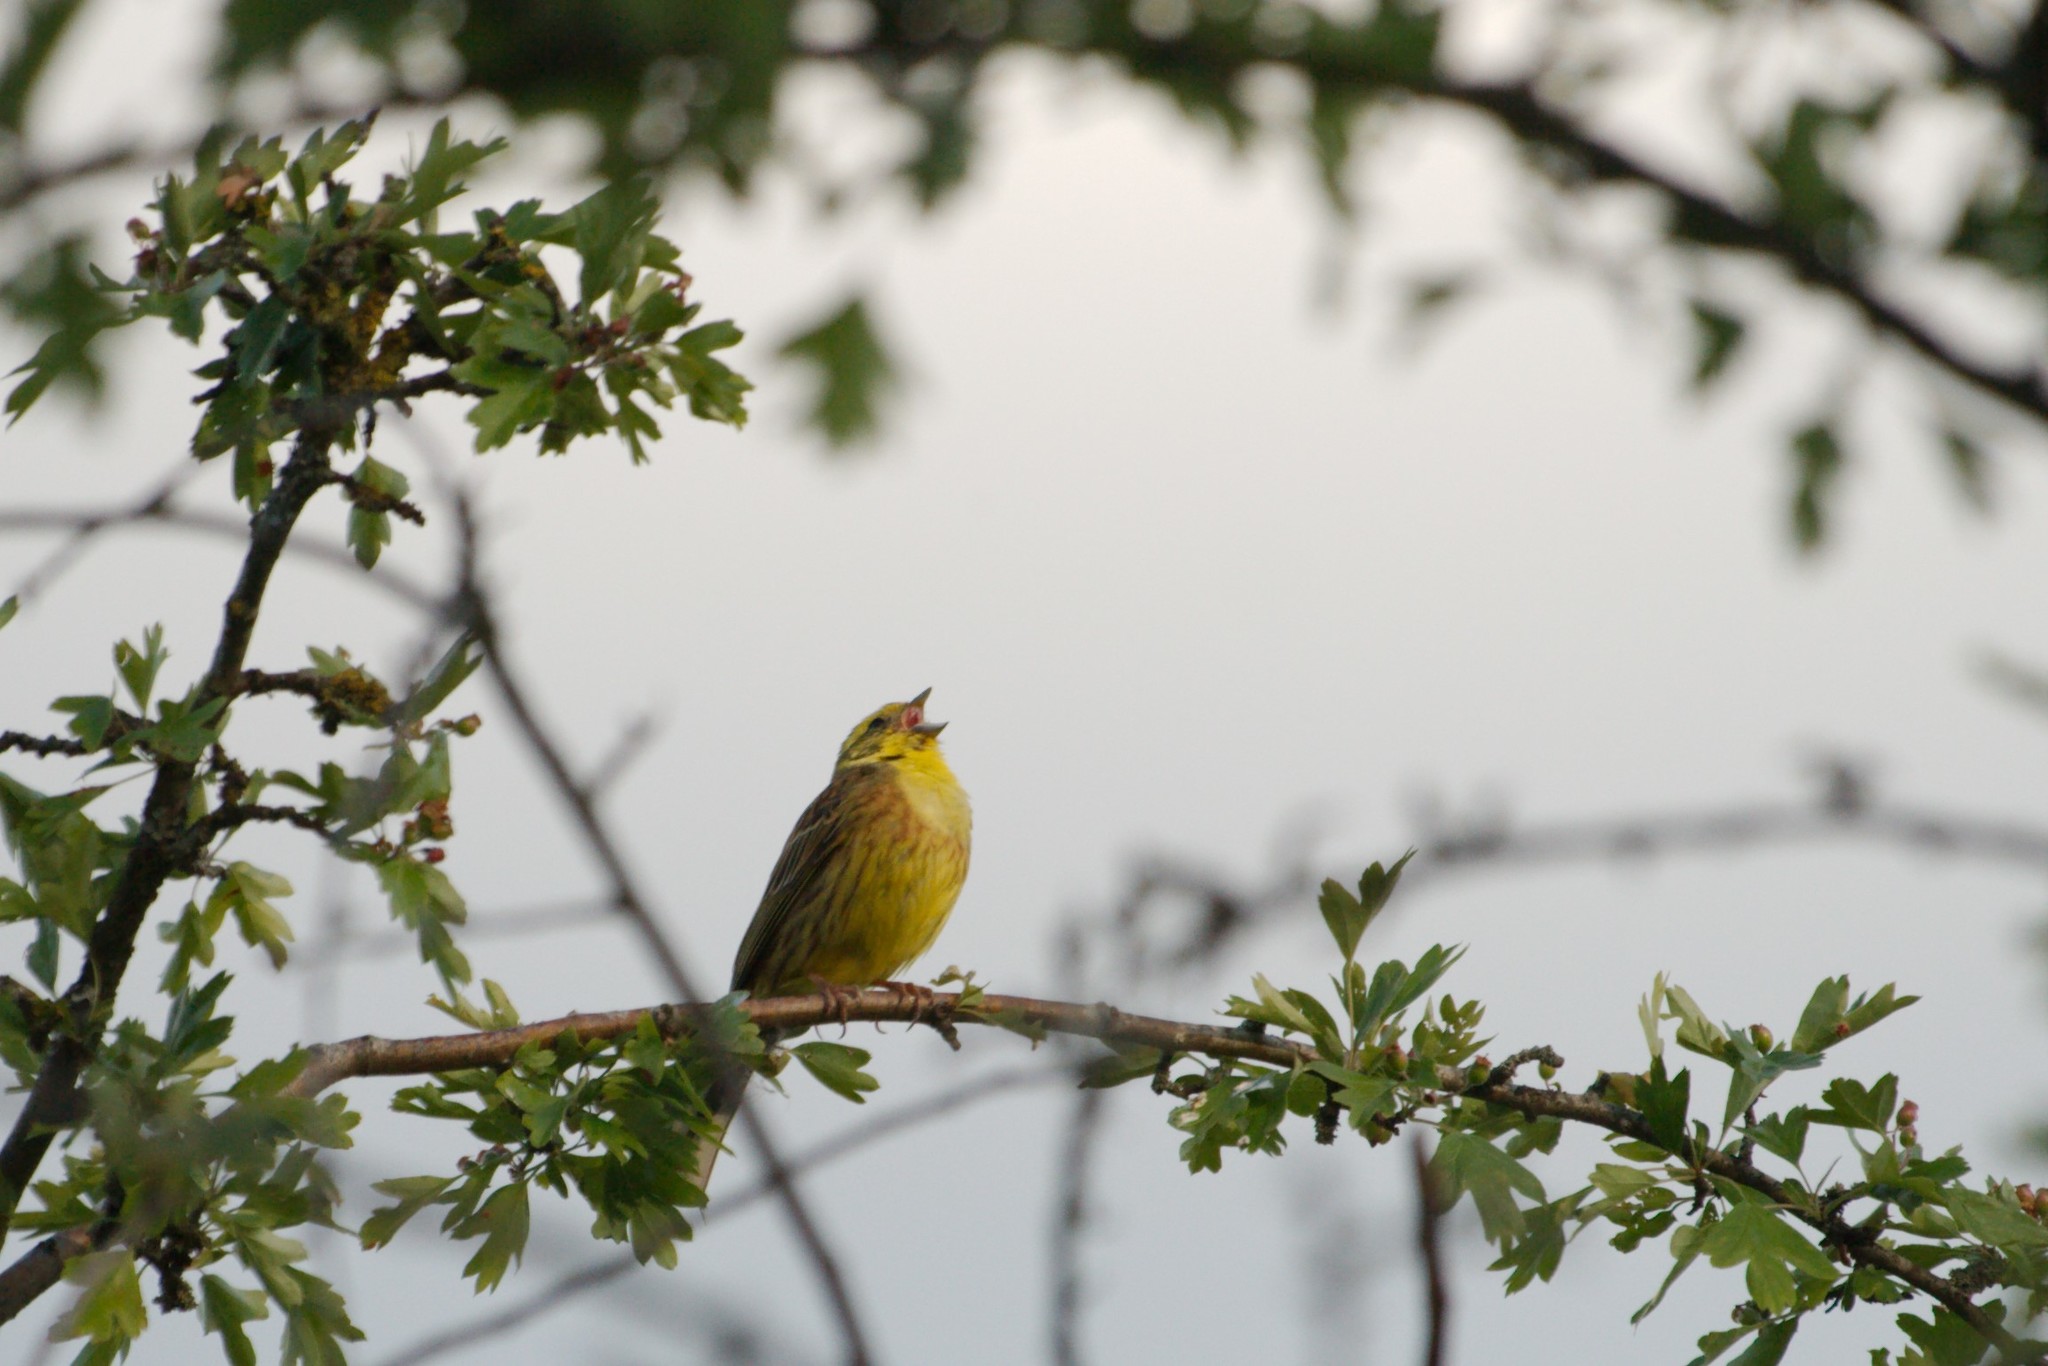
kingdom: Animalia
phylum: Chordata
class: Aves
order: Passeriformes
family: Emberizidae
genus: Emberiza
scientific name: Emberiza citrinella
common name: Yellowhammer
